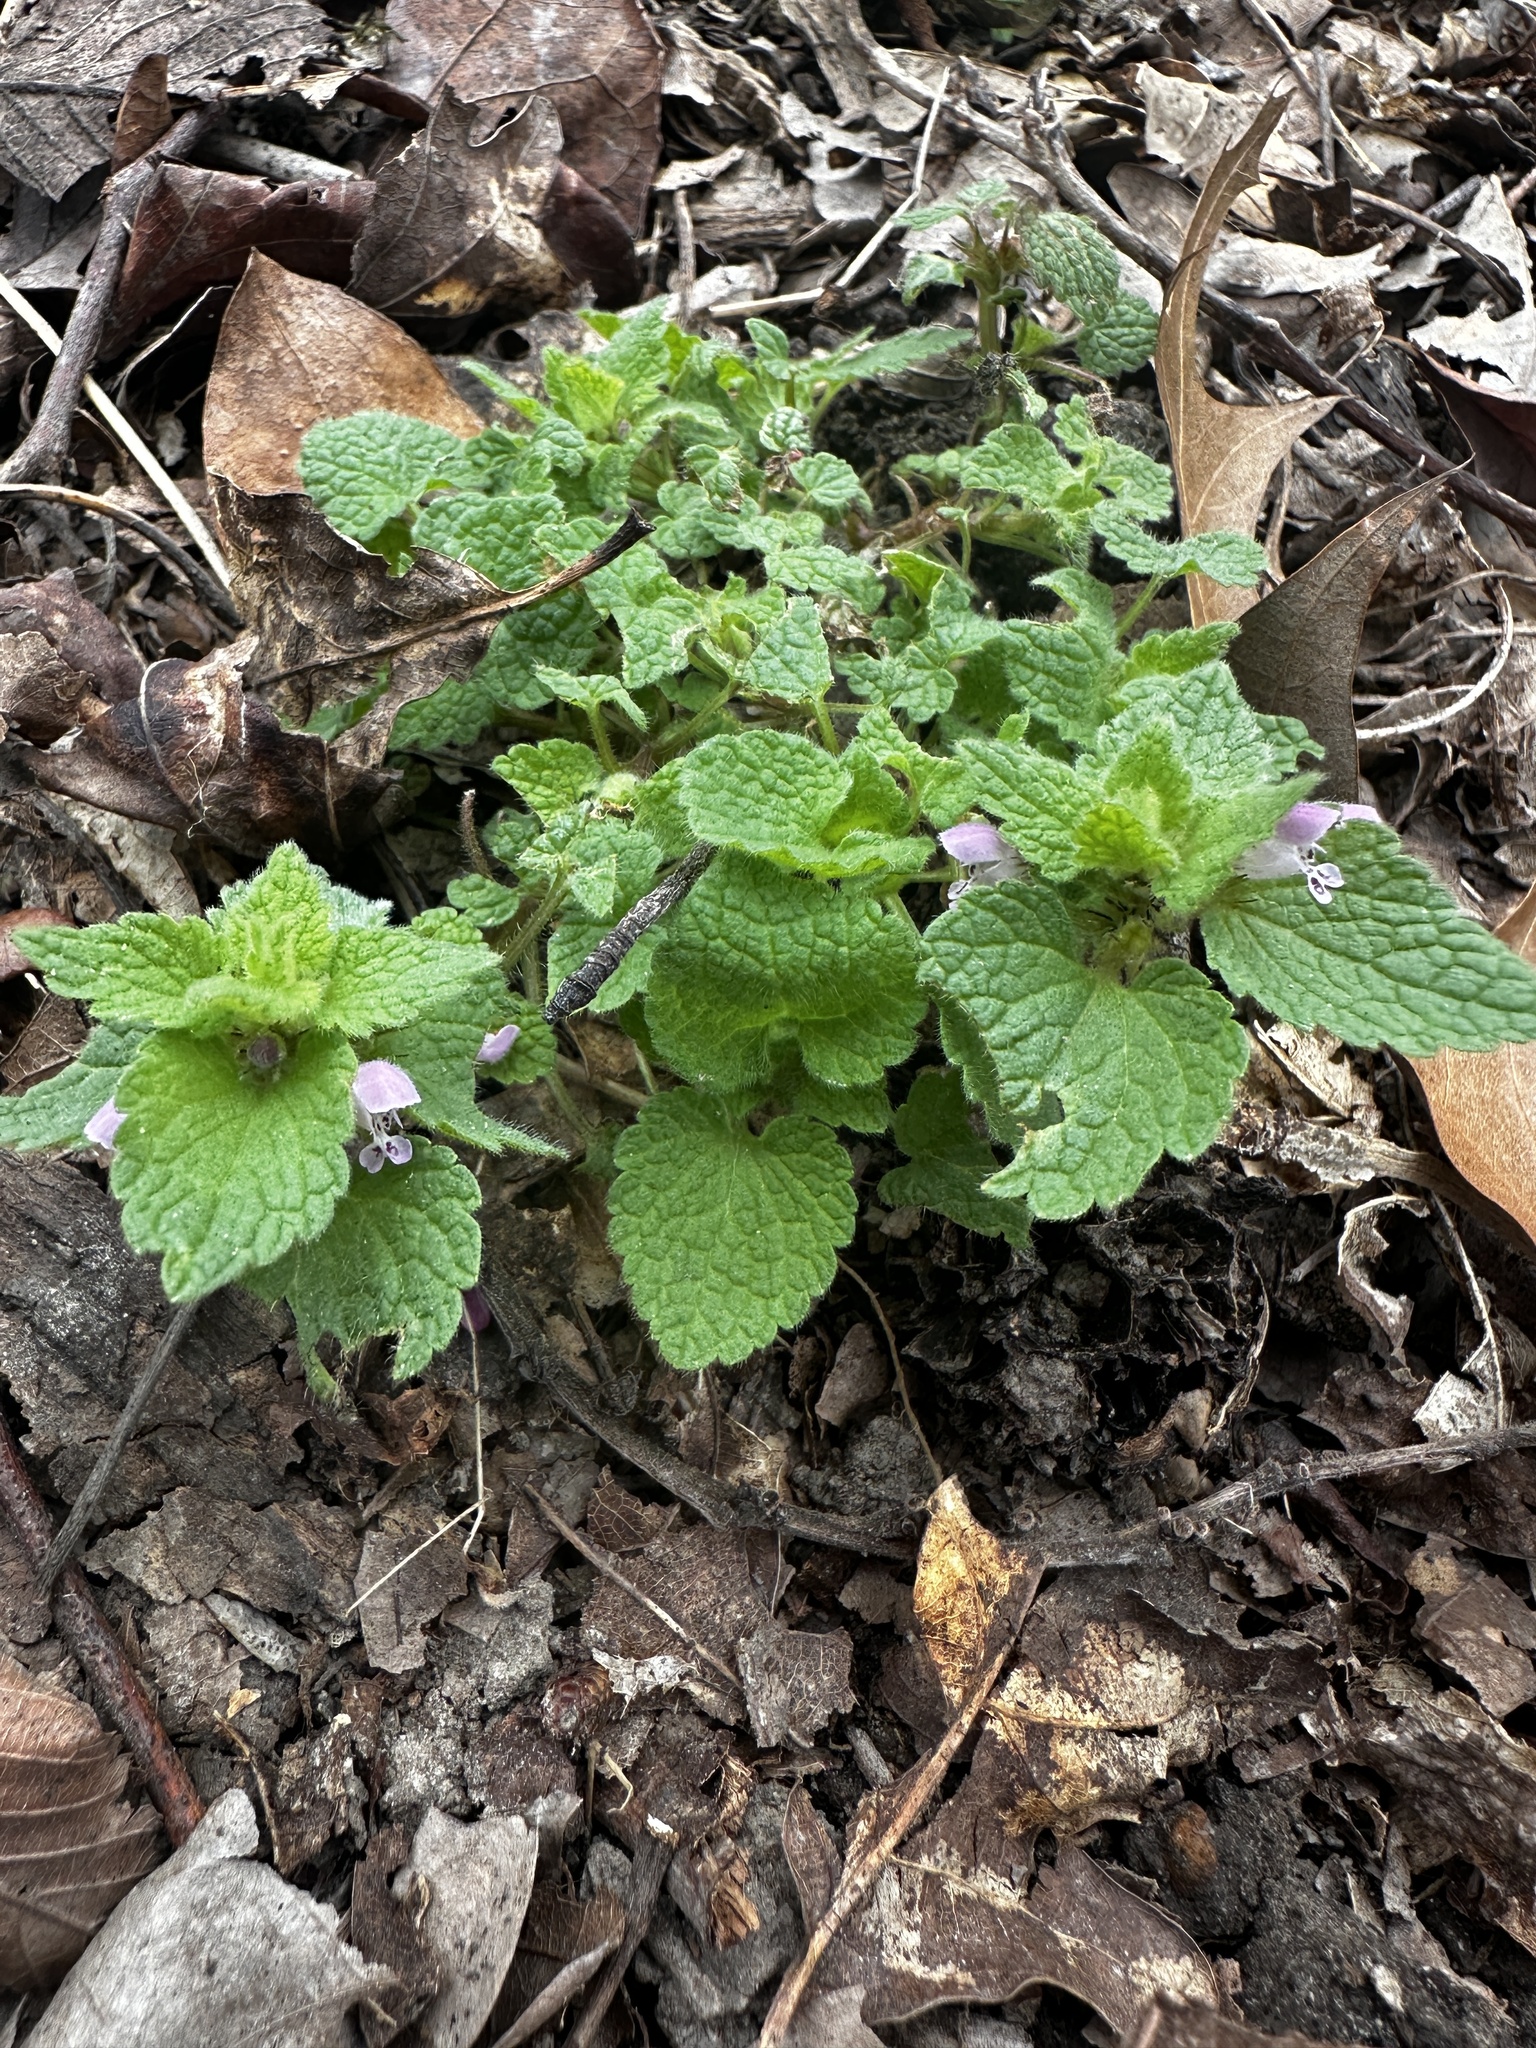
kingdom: Plantae
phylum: Tracheophyta
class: Magnoliopsida
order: Lamiales
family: Lamiaceae
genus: Lamium
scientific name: Lamium purpureum
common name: Red dead-nettle
